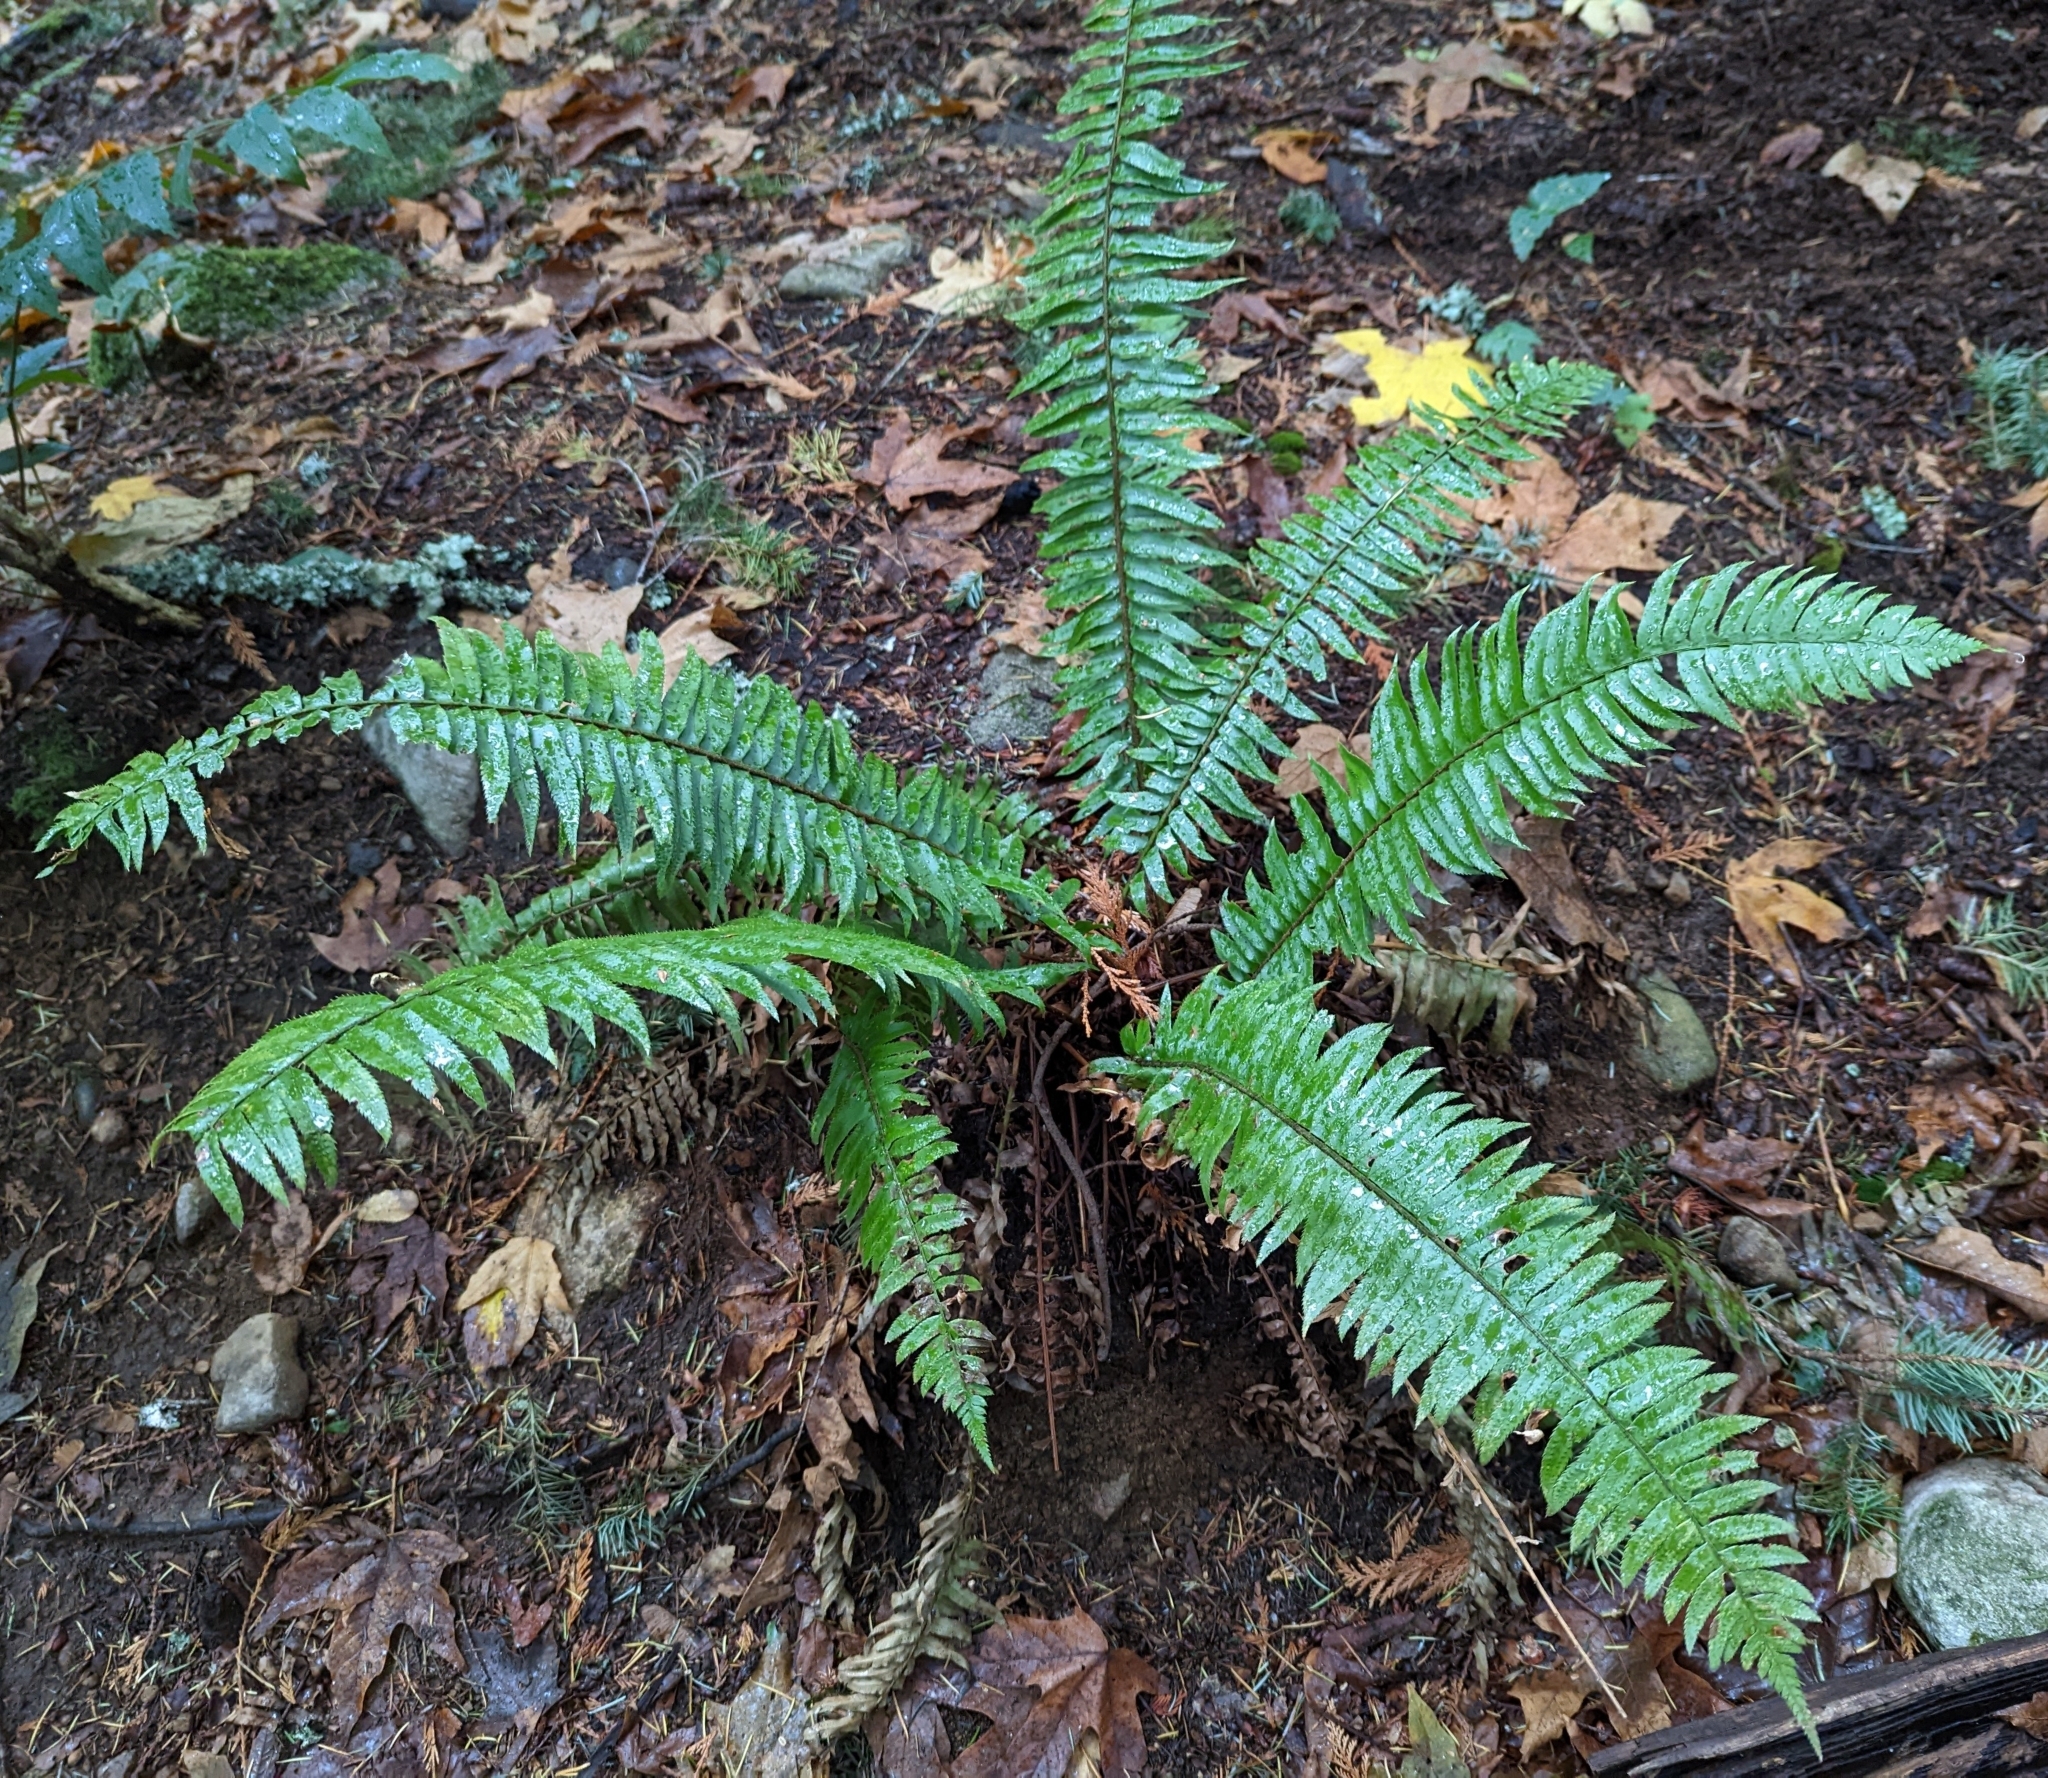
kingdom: Plantae
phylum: Tracheophyta
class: Polypodiopsida
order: Polypodiales
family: Dryopteridaceae
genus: Polystichum
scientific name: Polystichum munitum
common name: Western sword-fern
